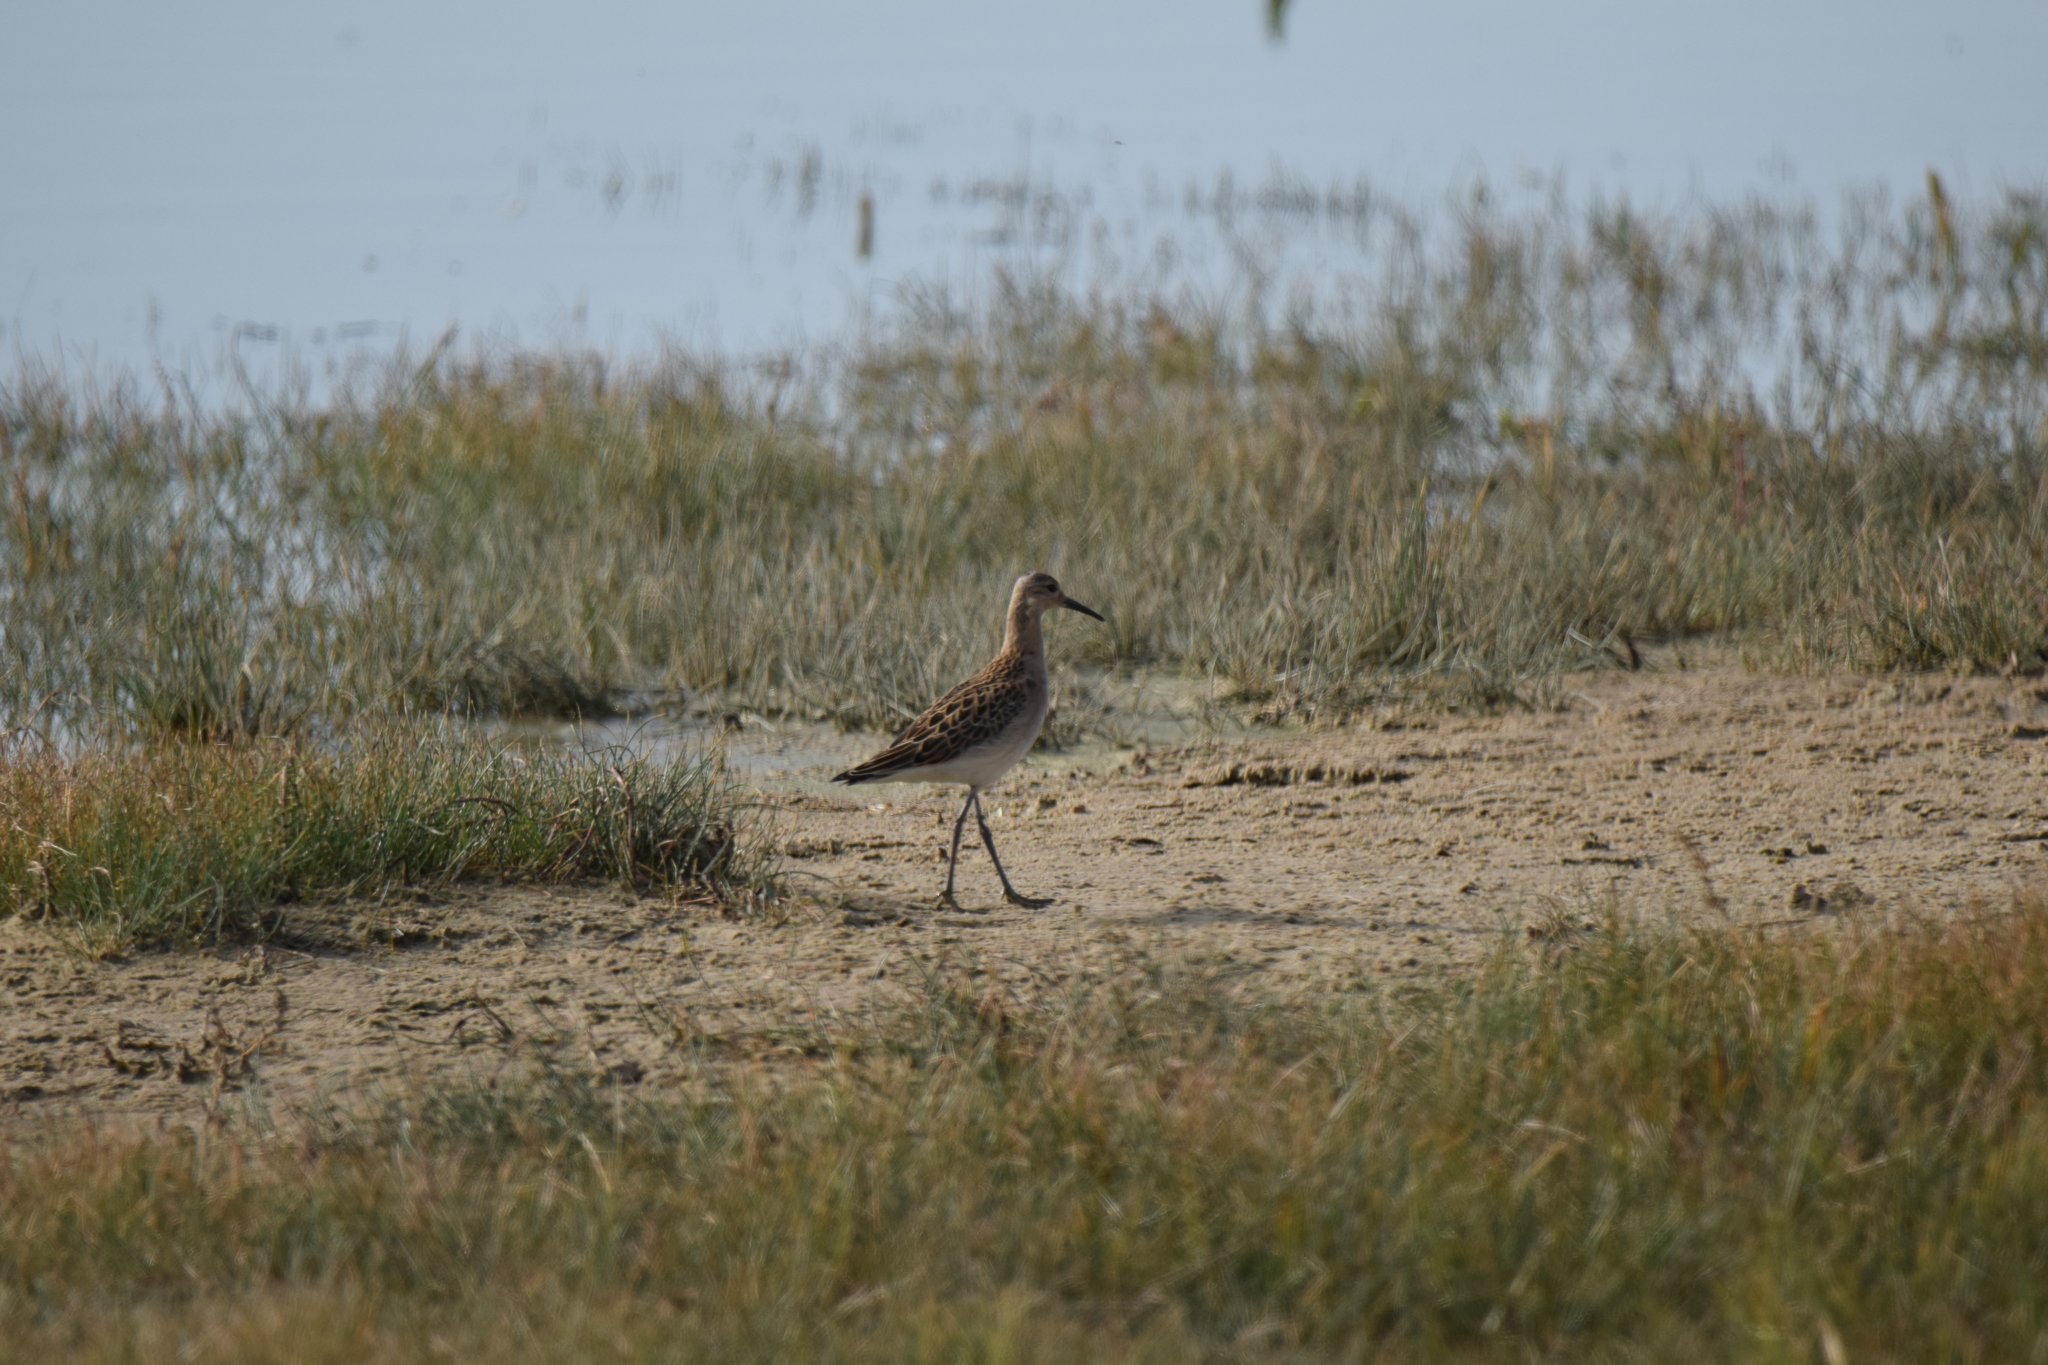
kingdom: Animalia
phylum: Chordata
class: Aves
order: Charadriiformes
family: Scolopacidae
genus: Calidris
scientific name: Calidris pugnax
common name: Ruff
